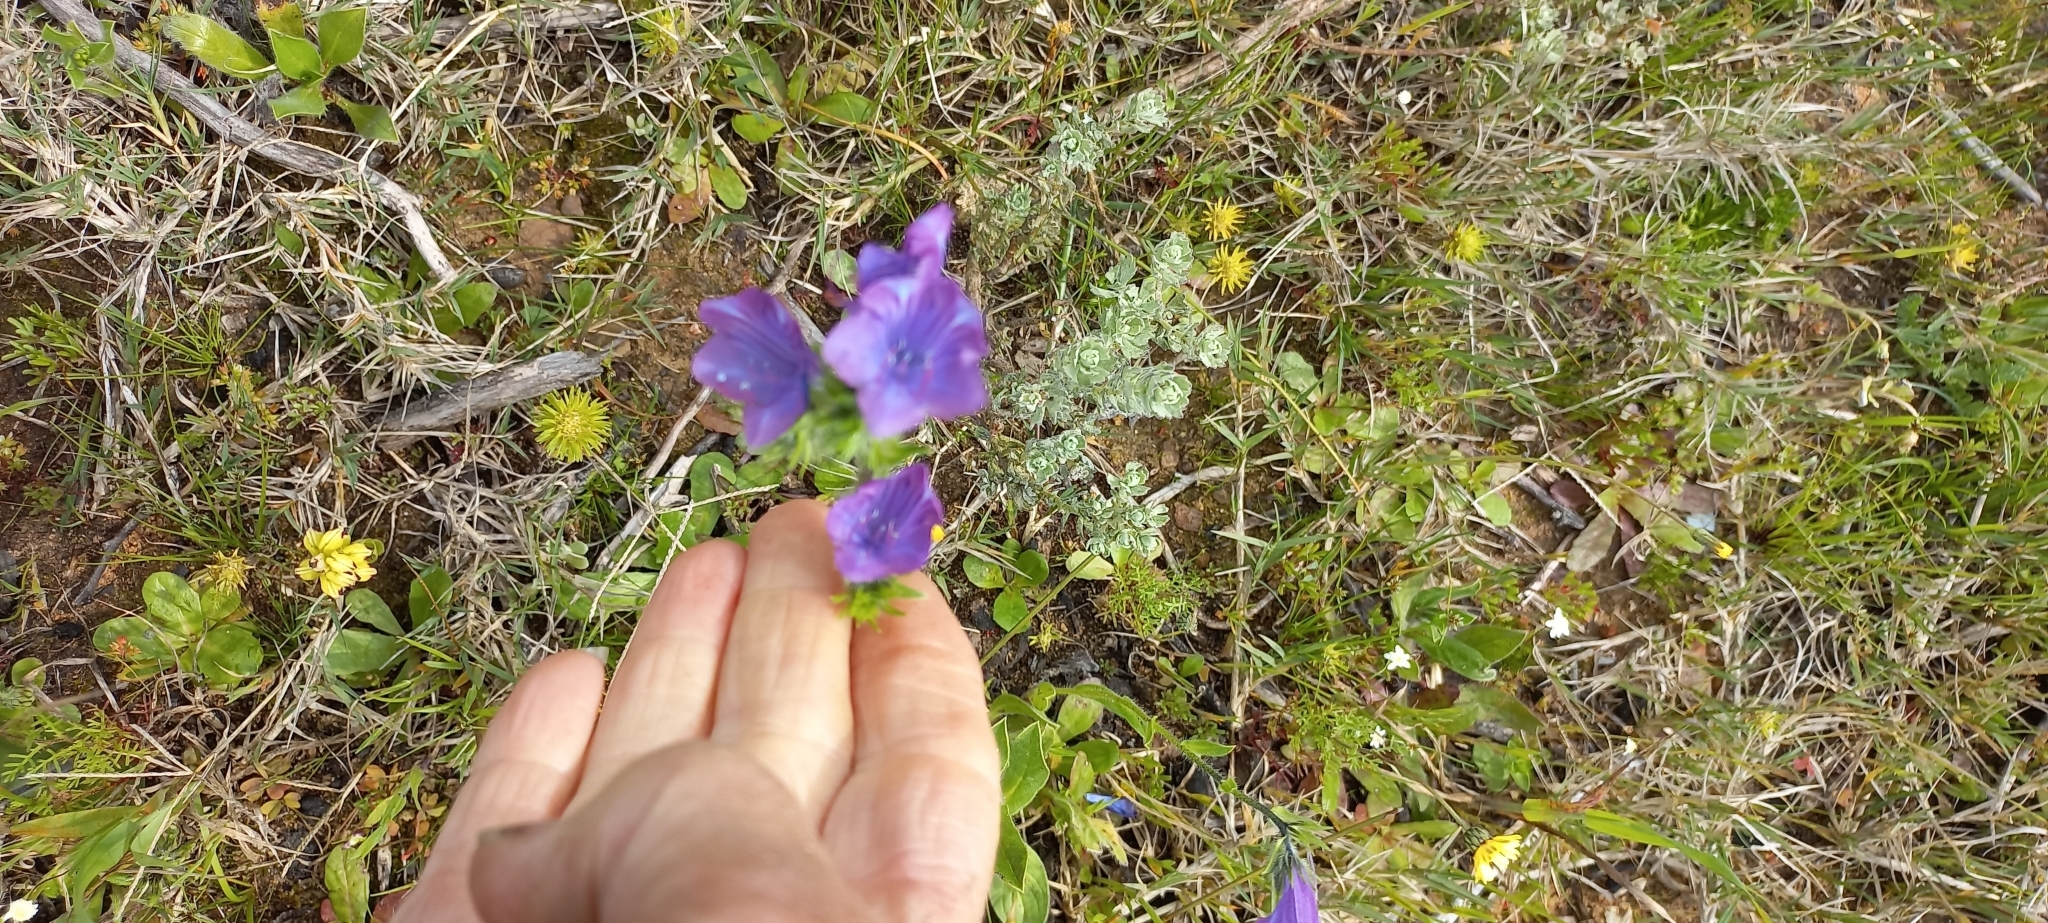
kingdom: Plantae
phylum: Tracheophyta
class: Magnoliopsida
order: Boraginales
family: Boraginaceae
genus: Echium
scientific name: Echium plantagineum
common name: Purple viper's-bugloss
